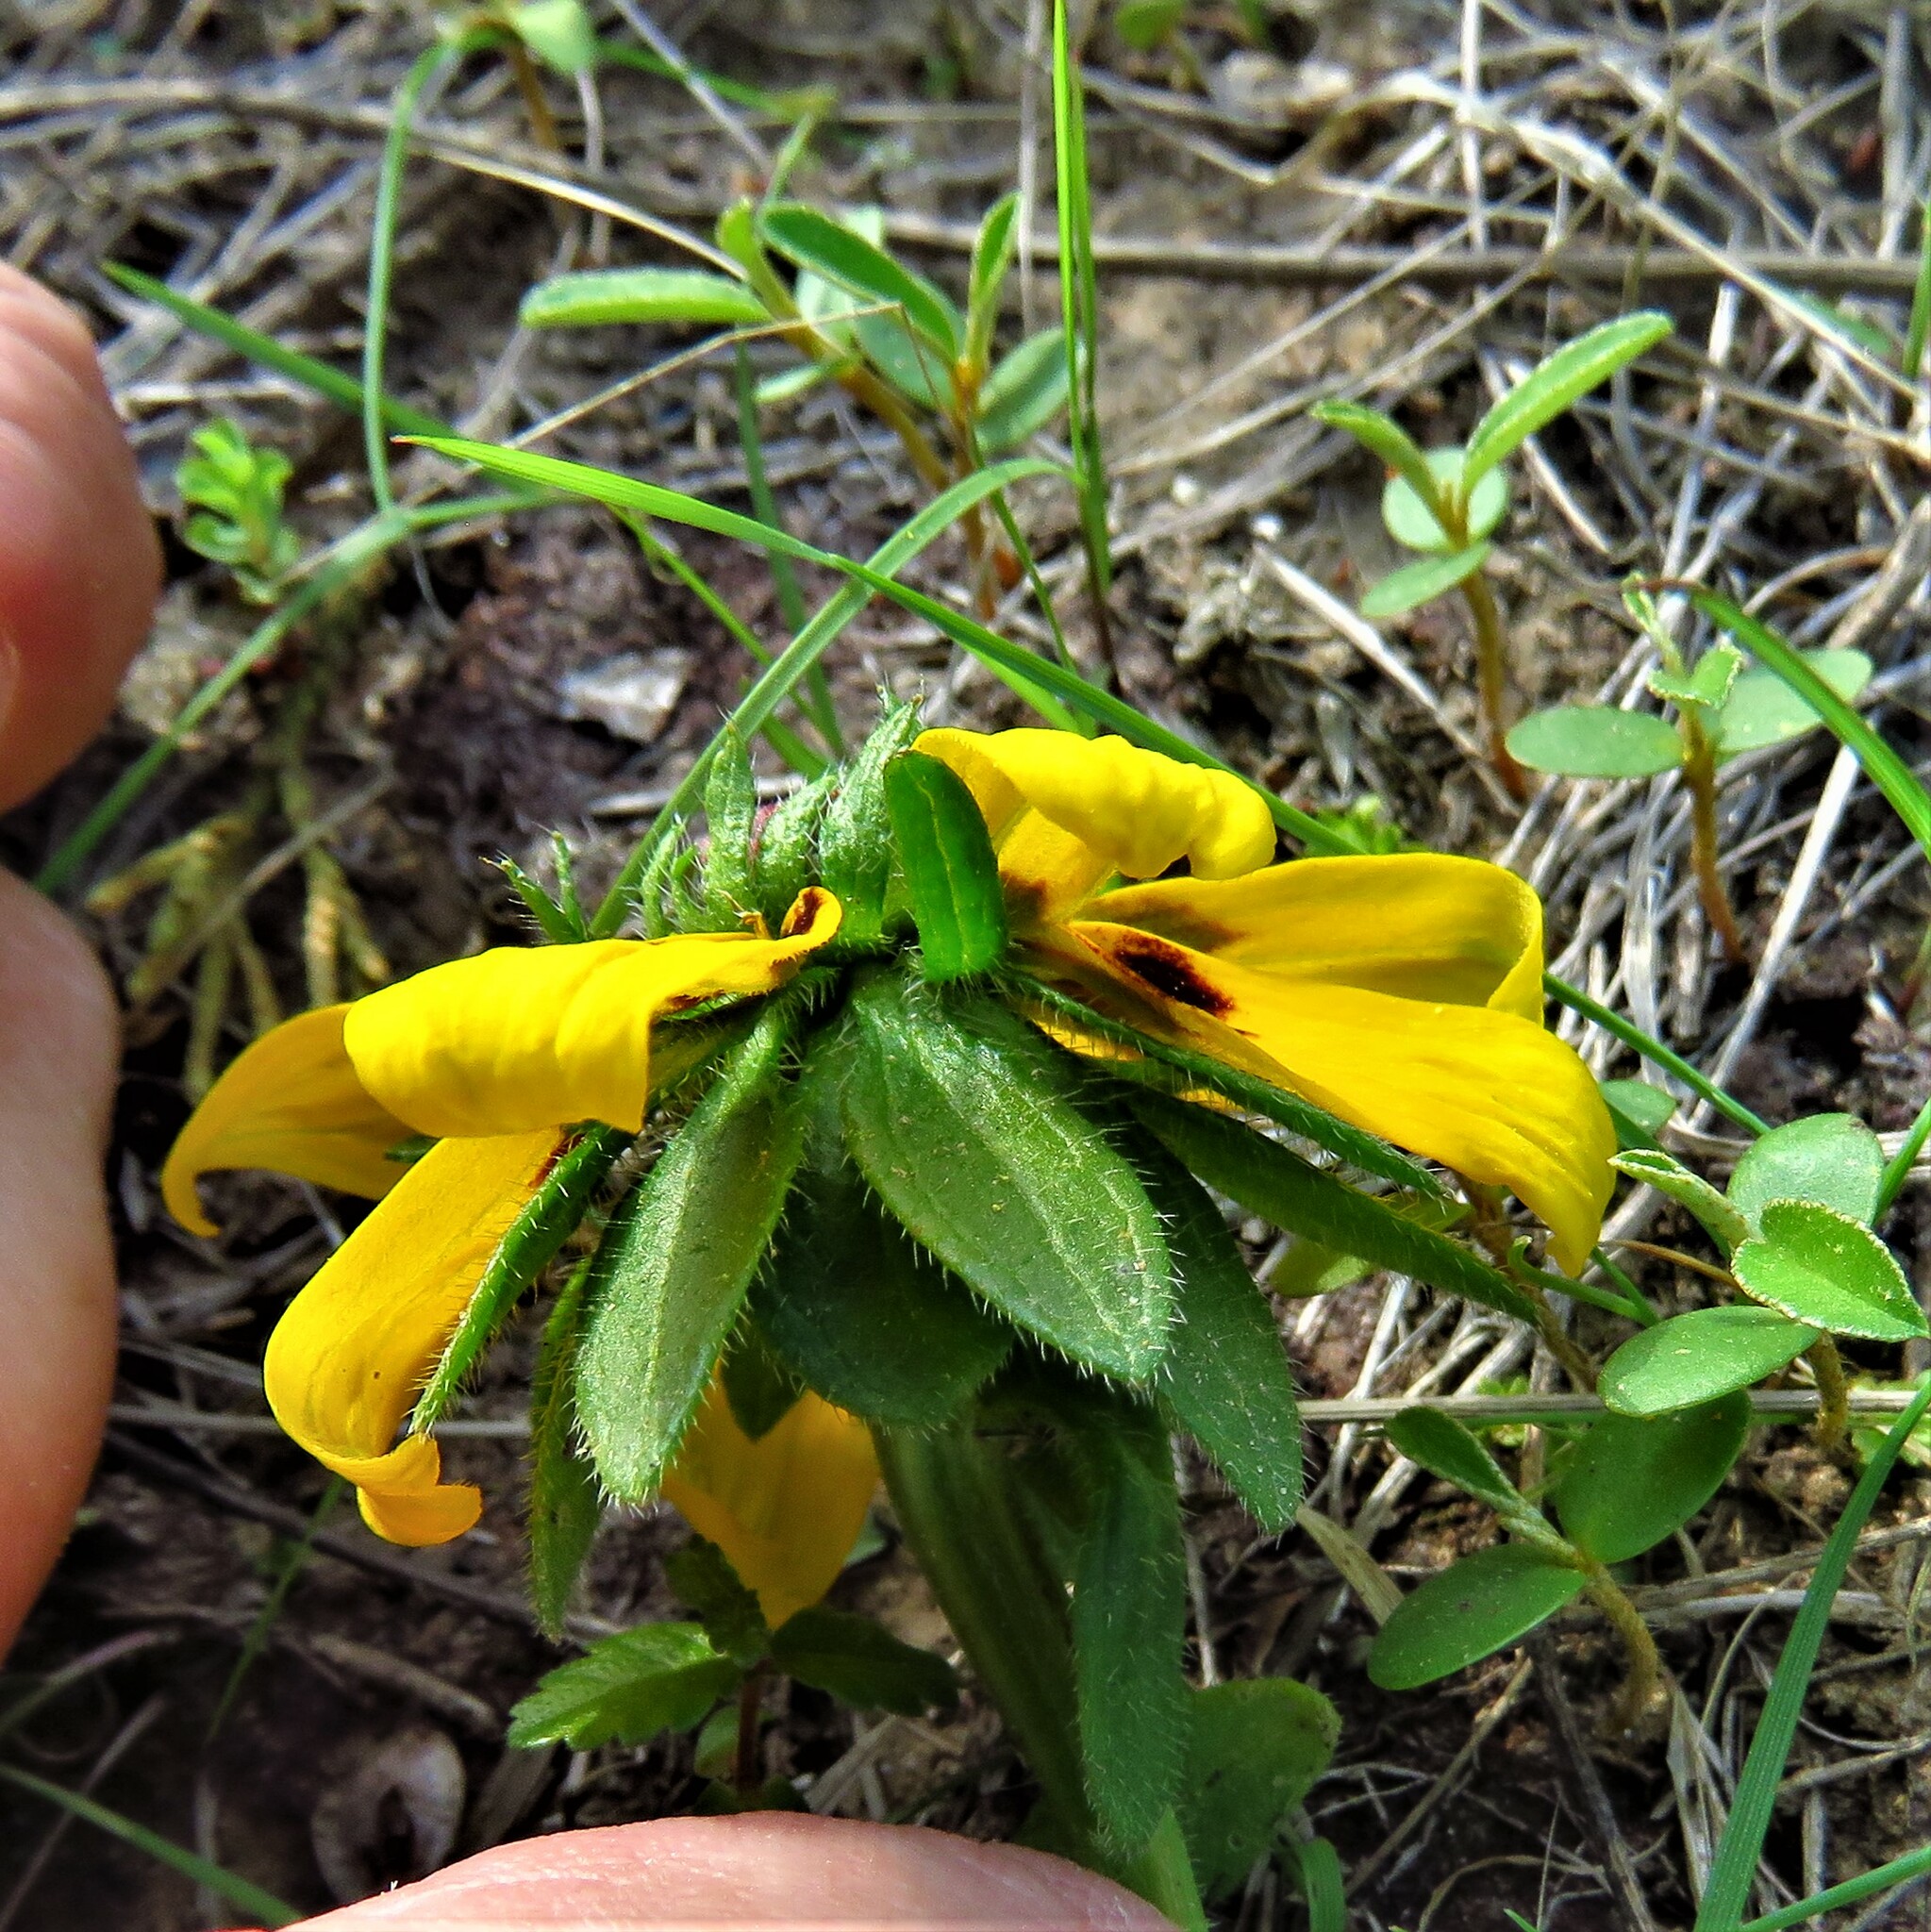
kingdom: Plantae
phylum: Tracheophyta
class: Magnoliopsida
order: Asterales
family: Asteraceae
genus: Rudbeckia
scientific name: Rudbeckia hirta
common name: Black-eyed-susan
